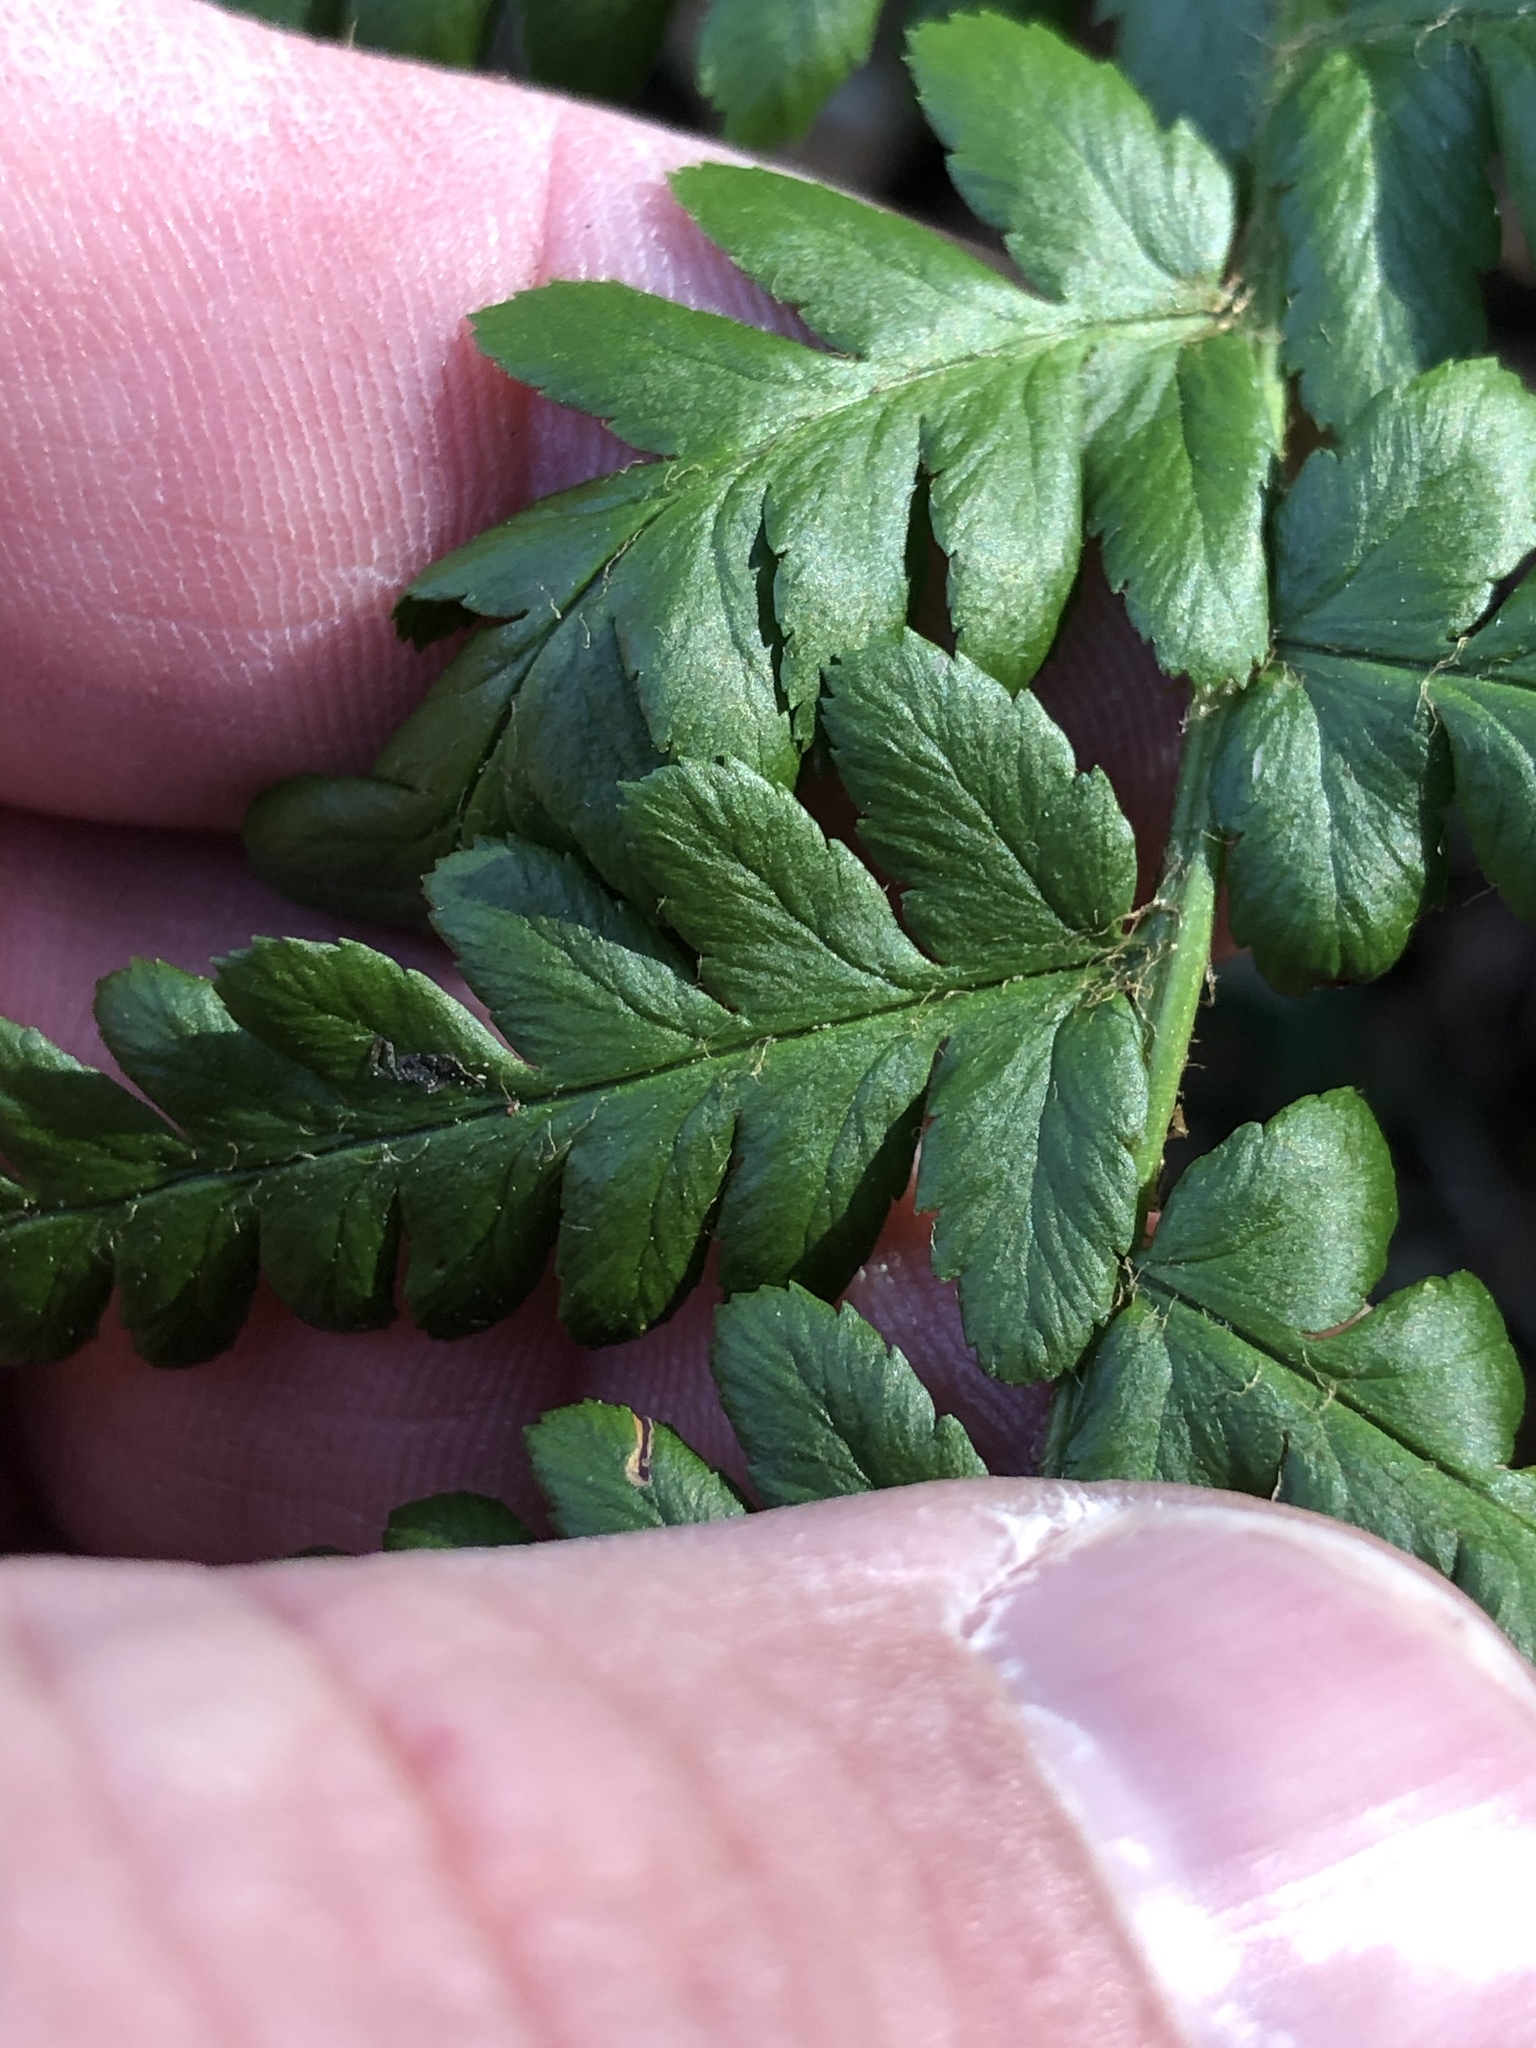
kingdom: Plantae
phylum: Tracheophyta
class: Polypodiopsida
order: Polypodiales
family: Dryopteridaceae
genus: Dryopteris
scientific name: Dryopteris filix-mas
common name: Male fern
